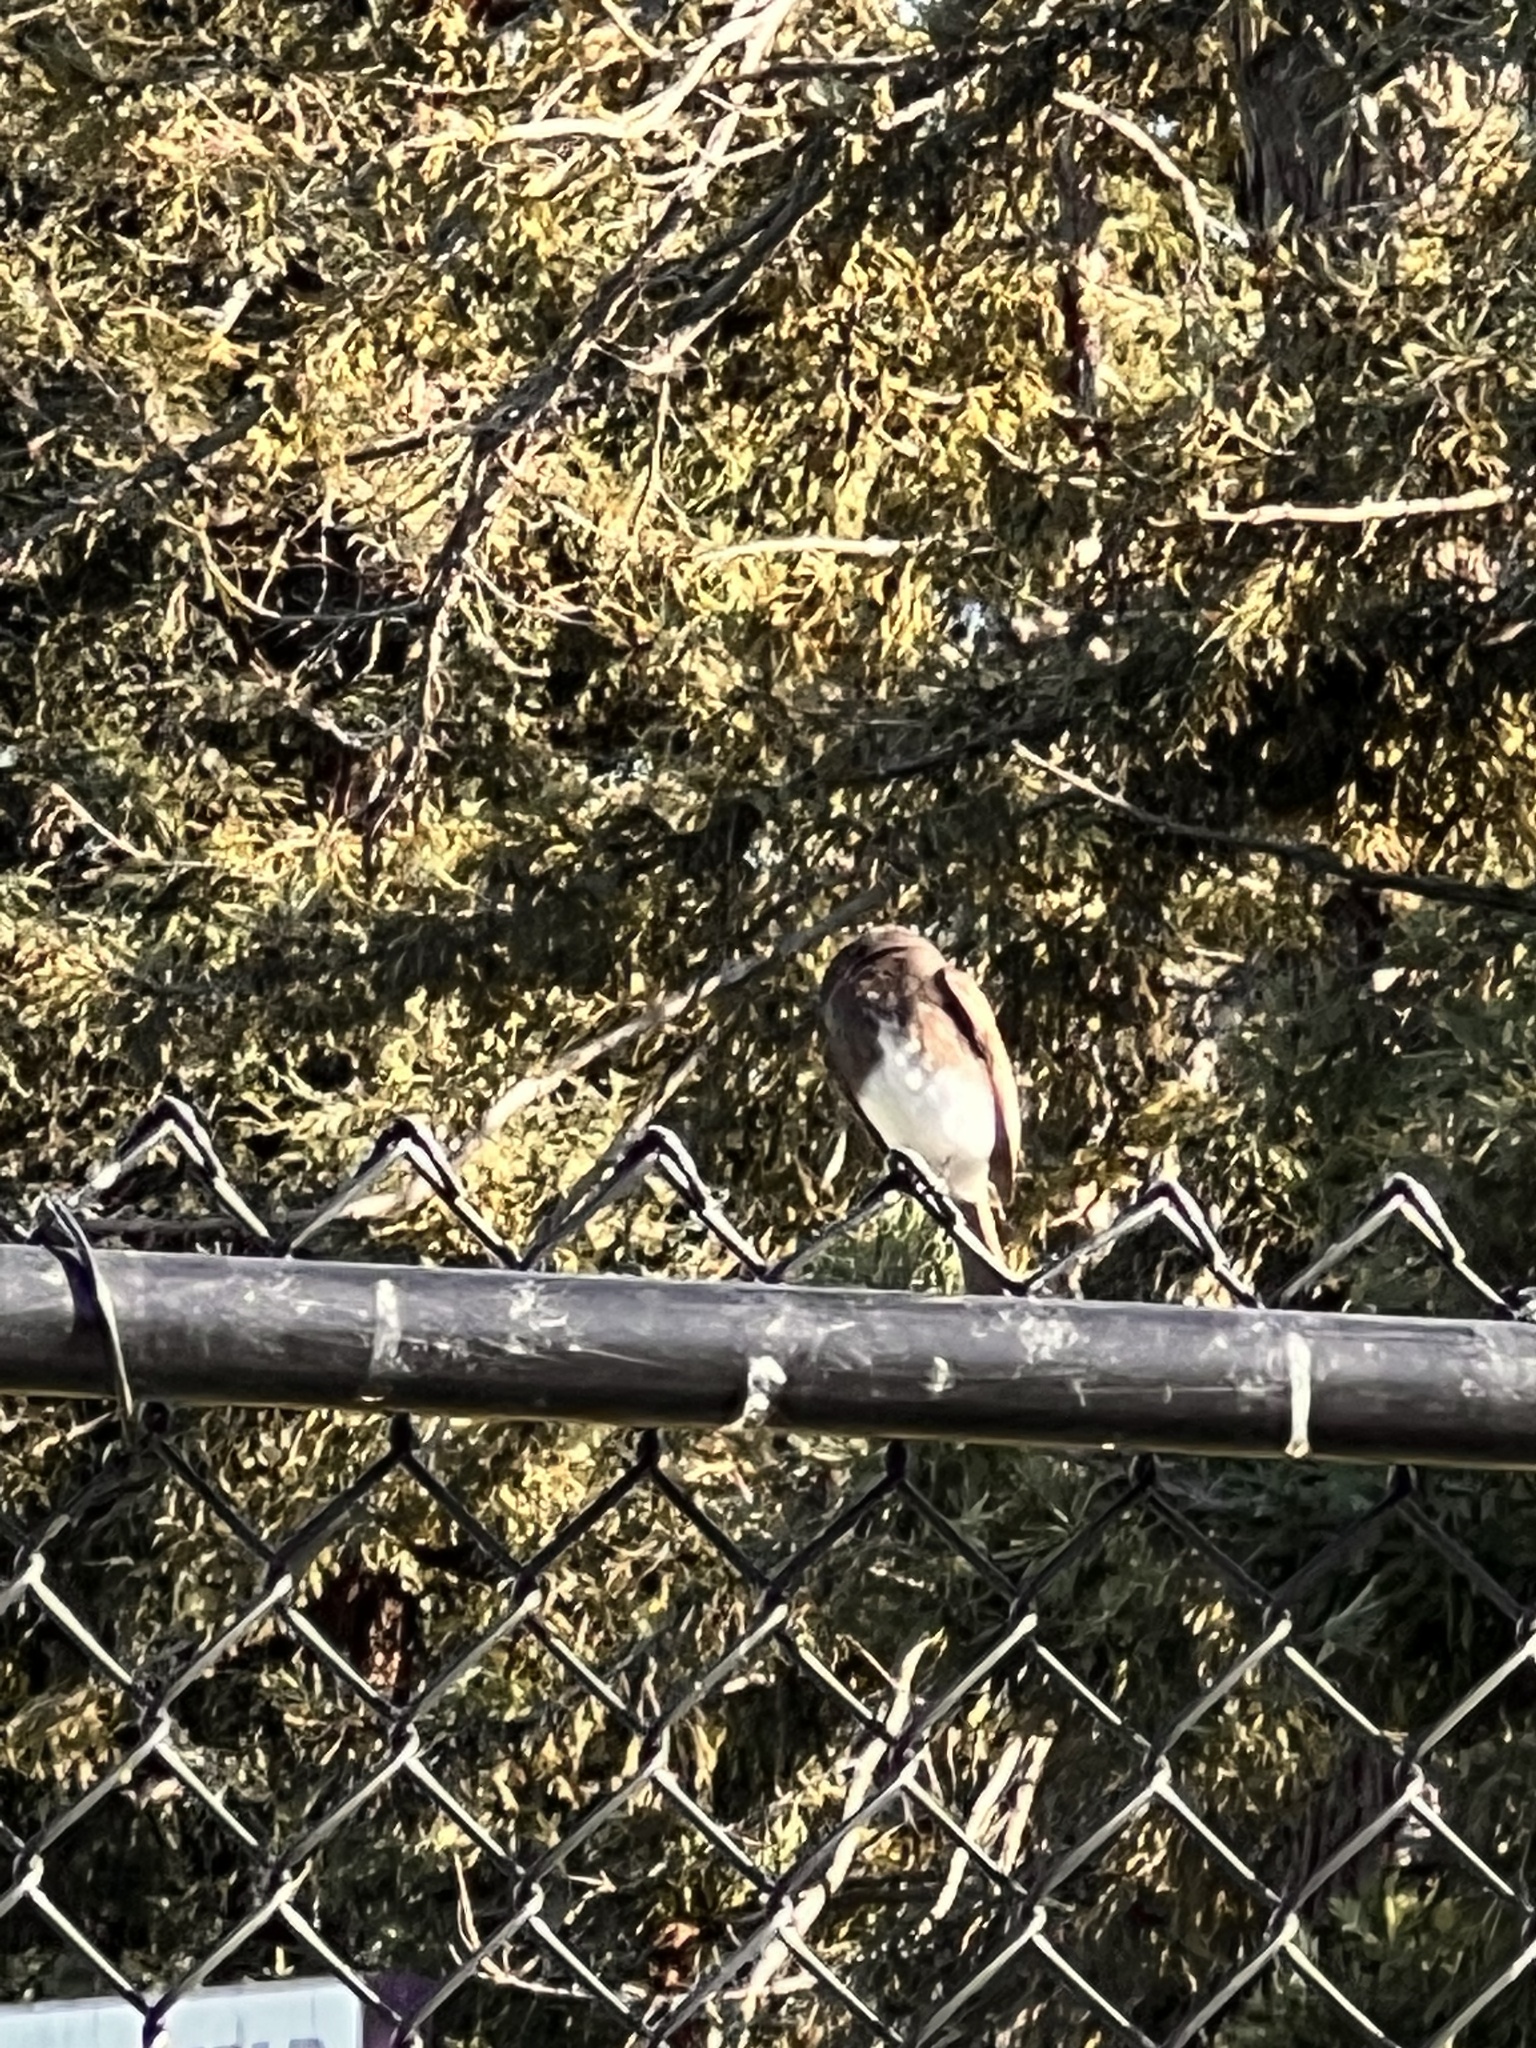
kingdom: Animalia
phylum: Chordata
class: Aves
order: Passeriformes
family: Tyrannidae
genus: Sayornis
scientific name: Sayornis nigricans
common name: Black phoebe
